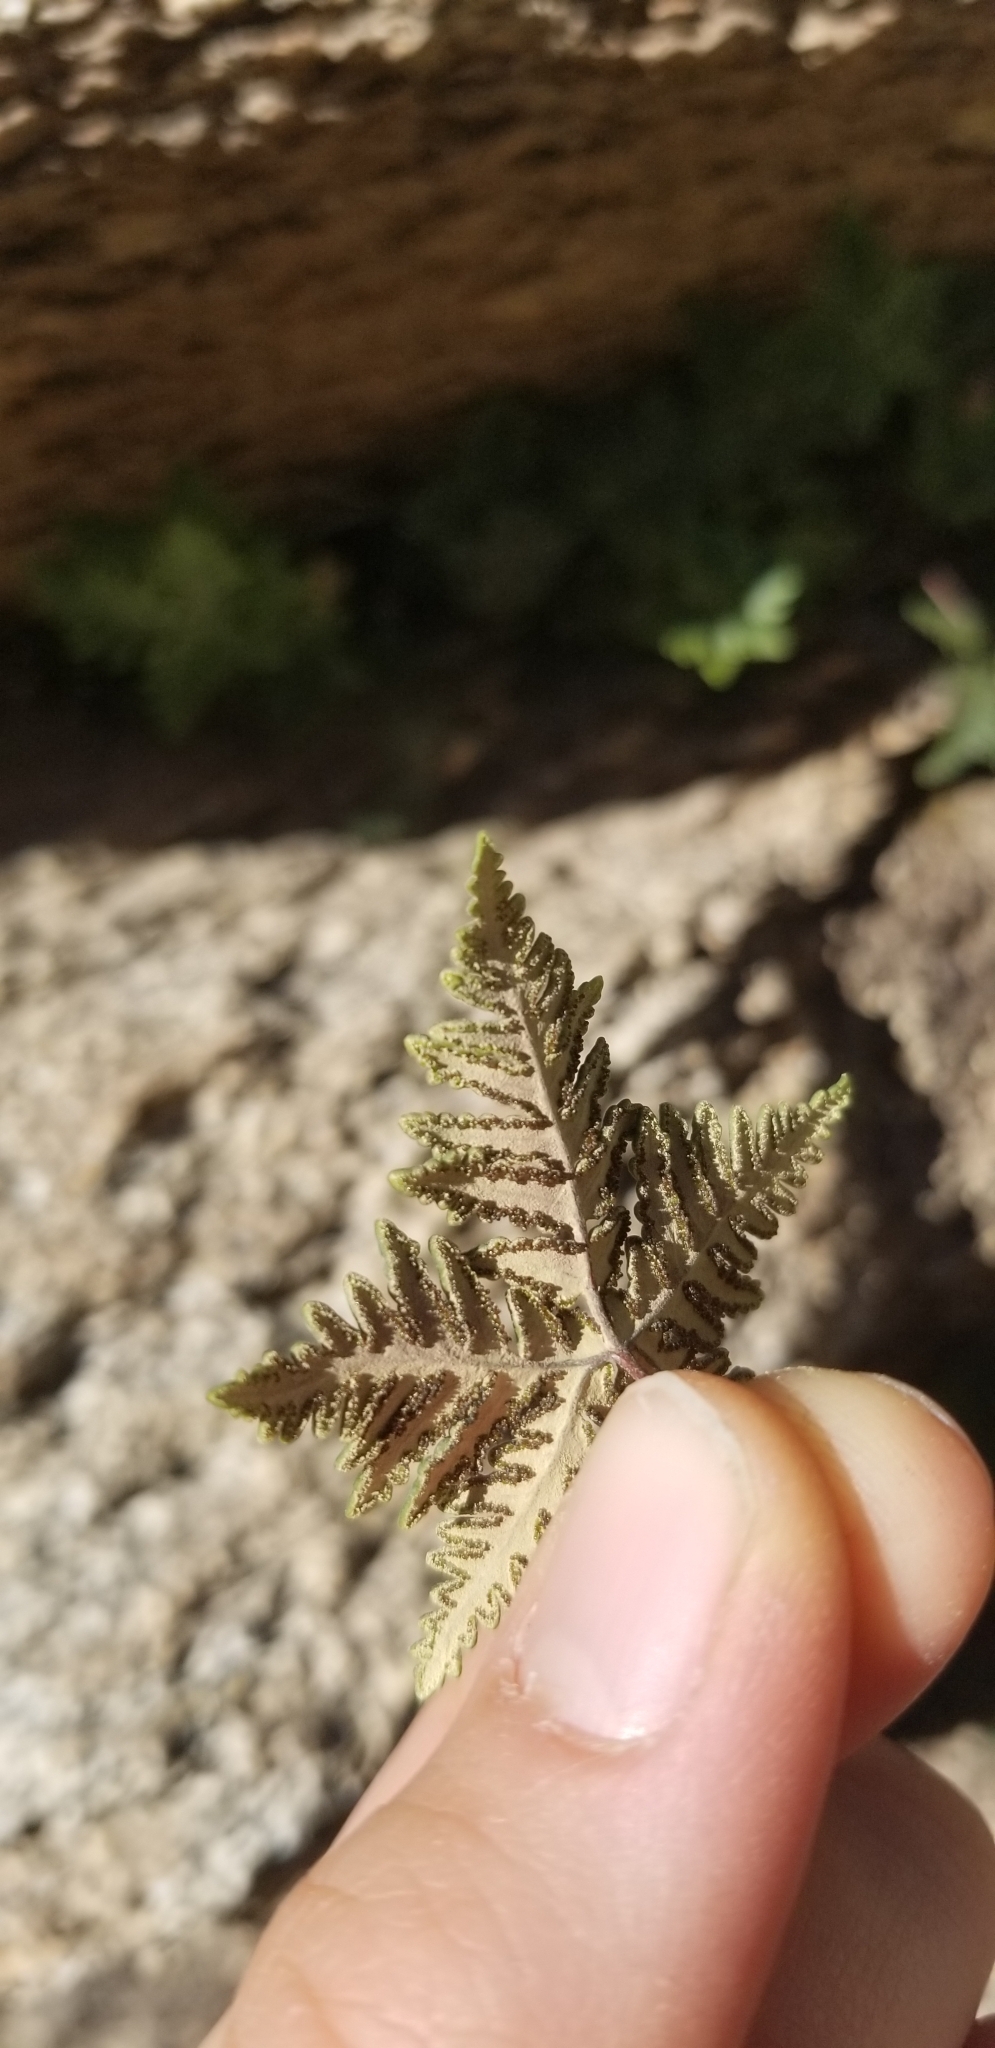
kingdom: Plantae
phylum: Tracheophyta
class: Polypodiopsida
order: Polypodiales
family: Pteridaceae
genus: Notholaena
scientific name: Notholaena standleyi
